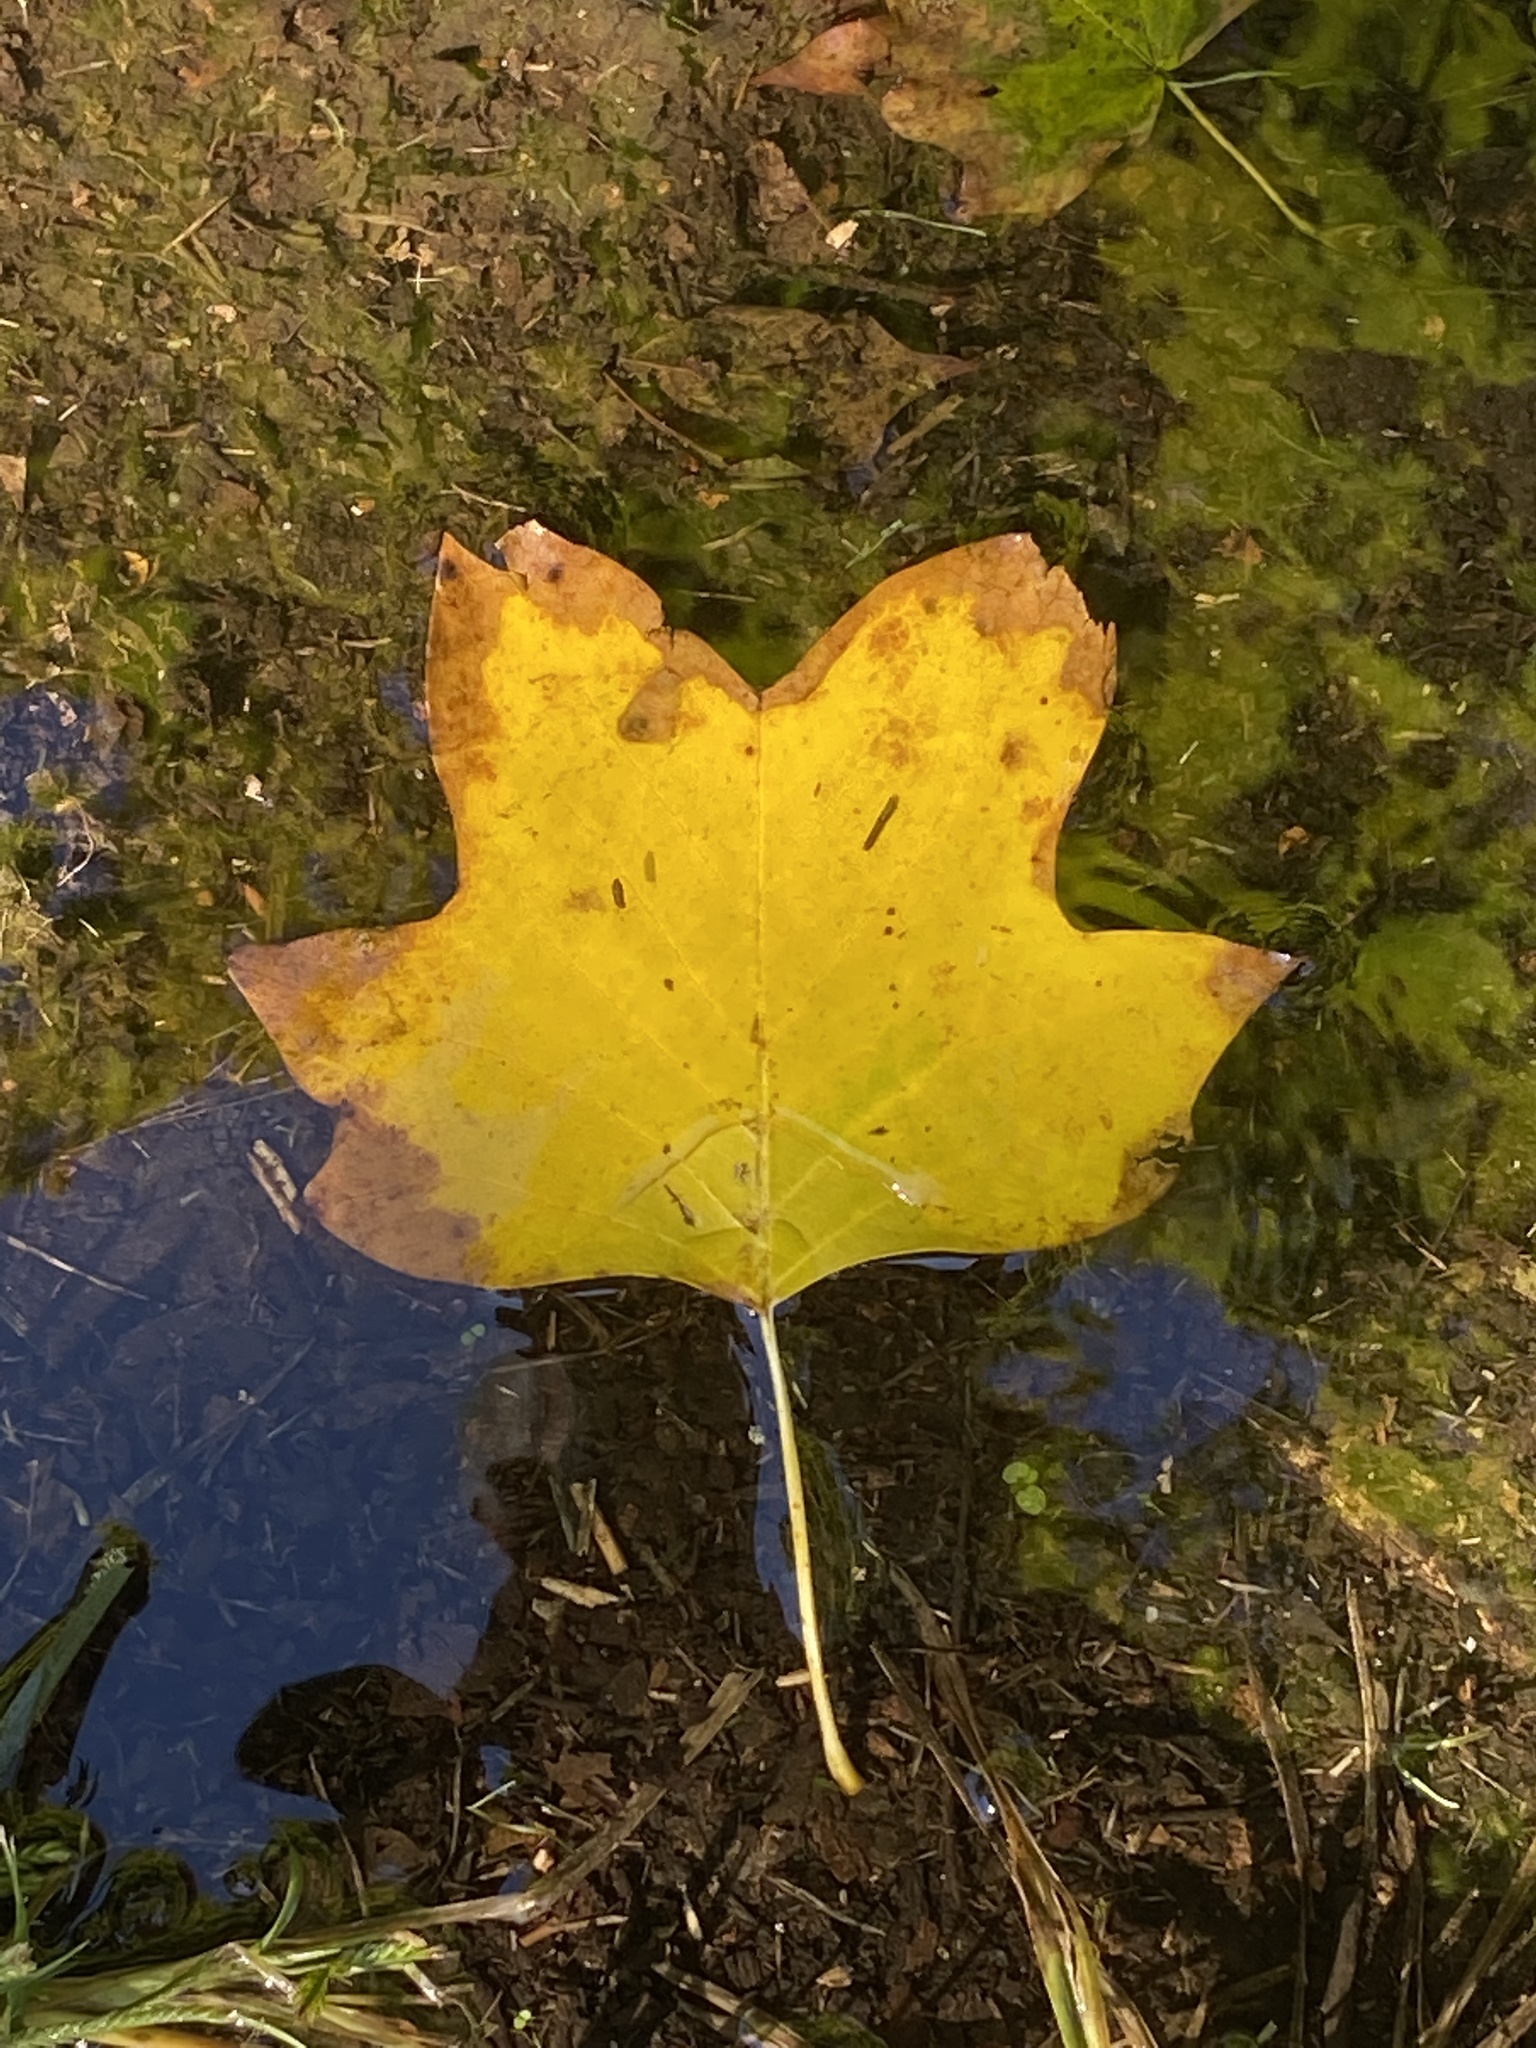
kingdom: Plantae
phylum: Tracheophyta
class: Magnoliopsida
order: Magnoliales
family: Magnoliaceae
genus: Liriodendron
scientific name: Liriodendron tulipifera
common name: Tulip tree
